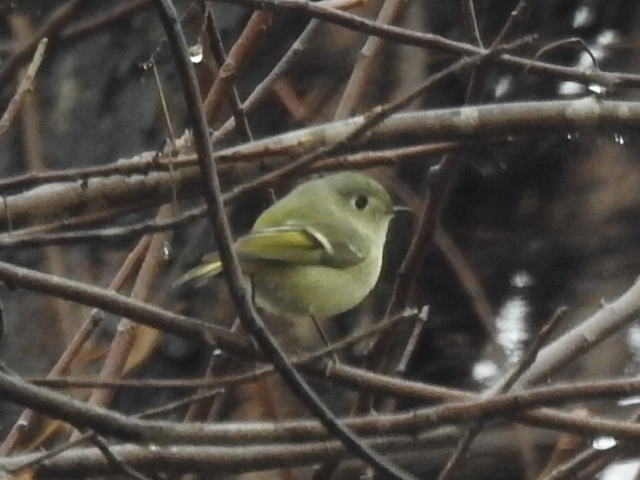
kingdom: Animalia
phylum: Chordata
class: Aves
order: Passeriformes
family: Regulidae
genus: Regulus
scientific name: Regulus calendula
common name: Ruby-crowned kinglet
